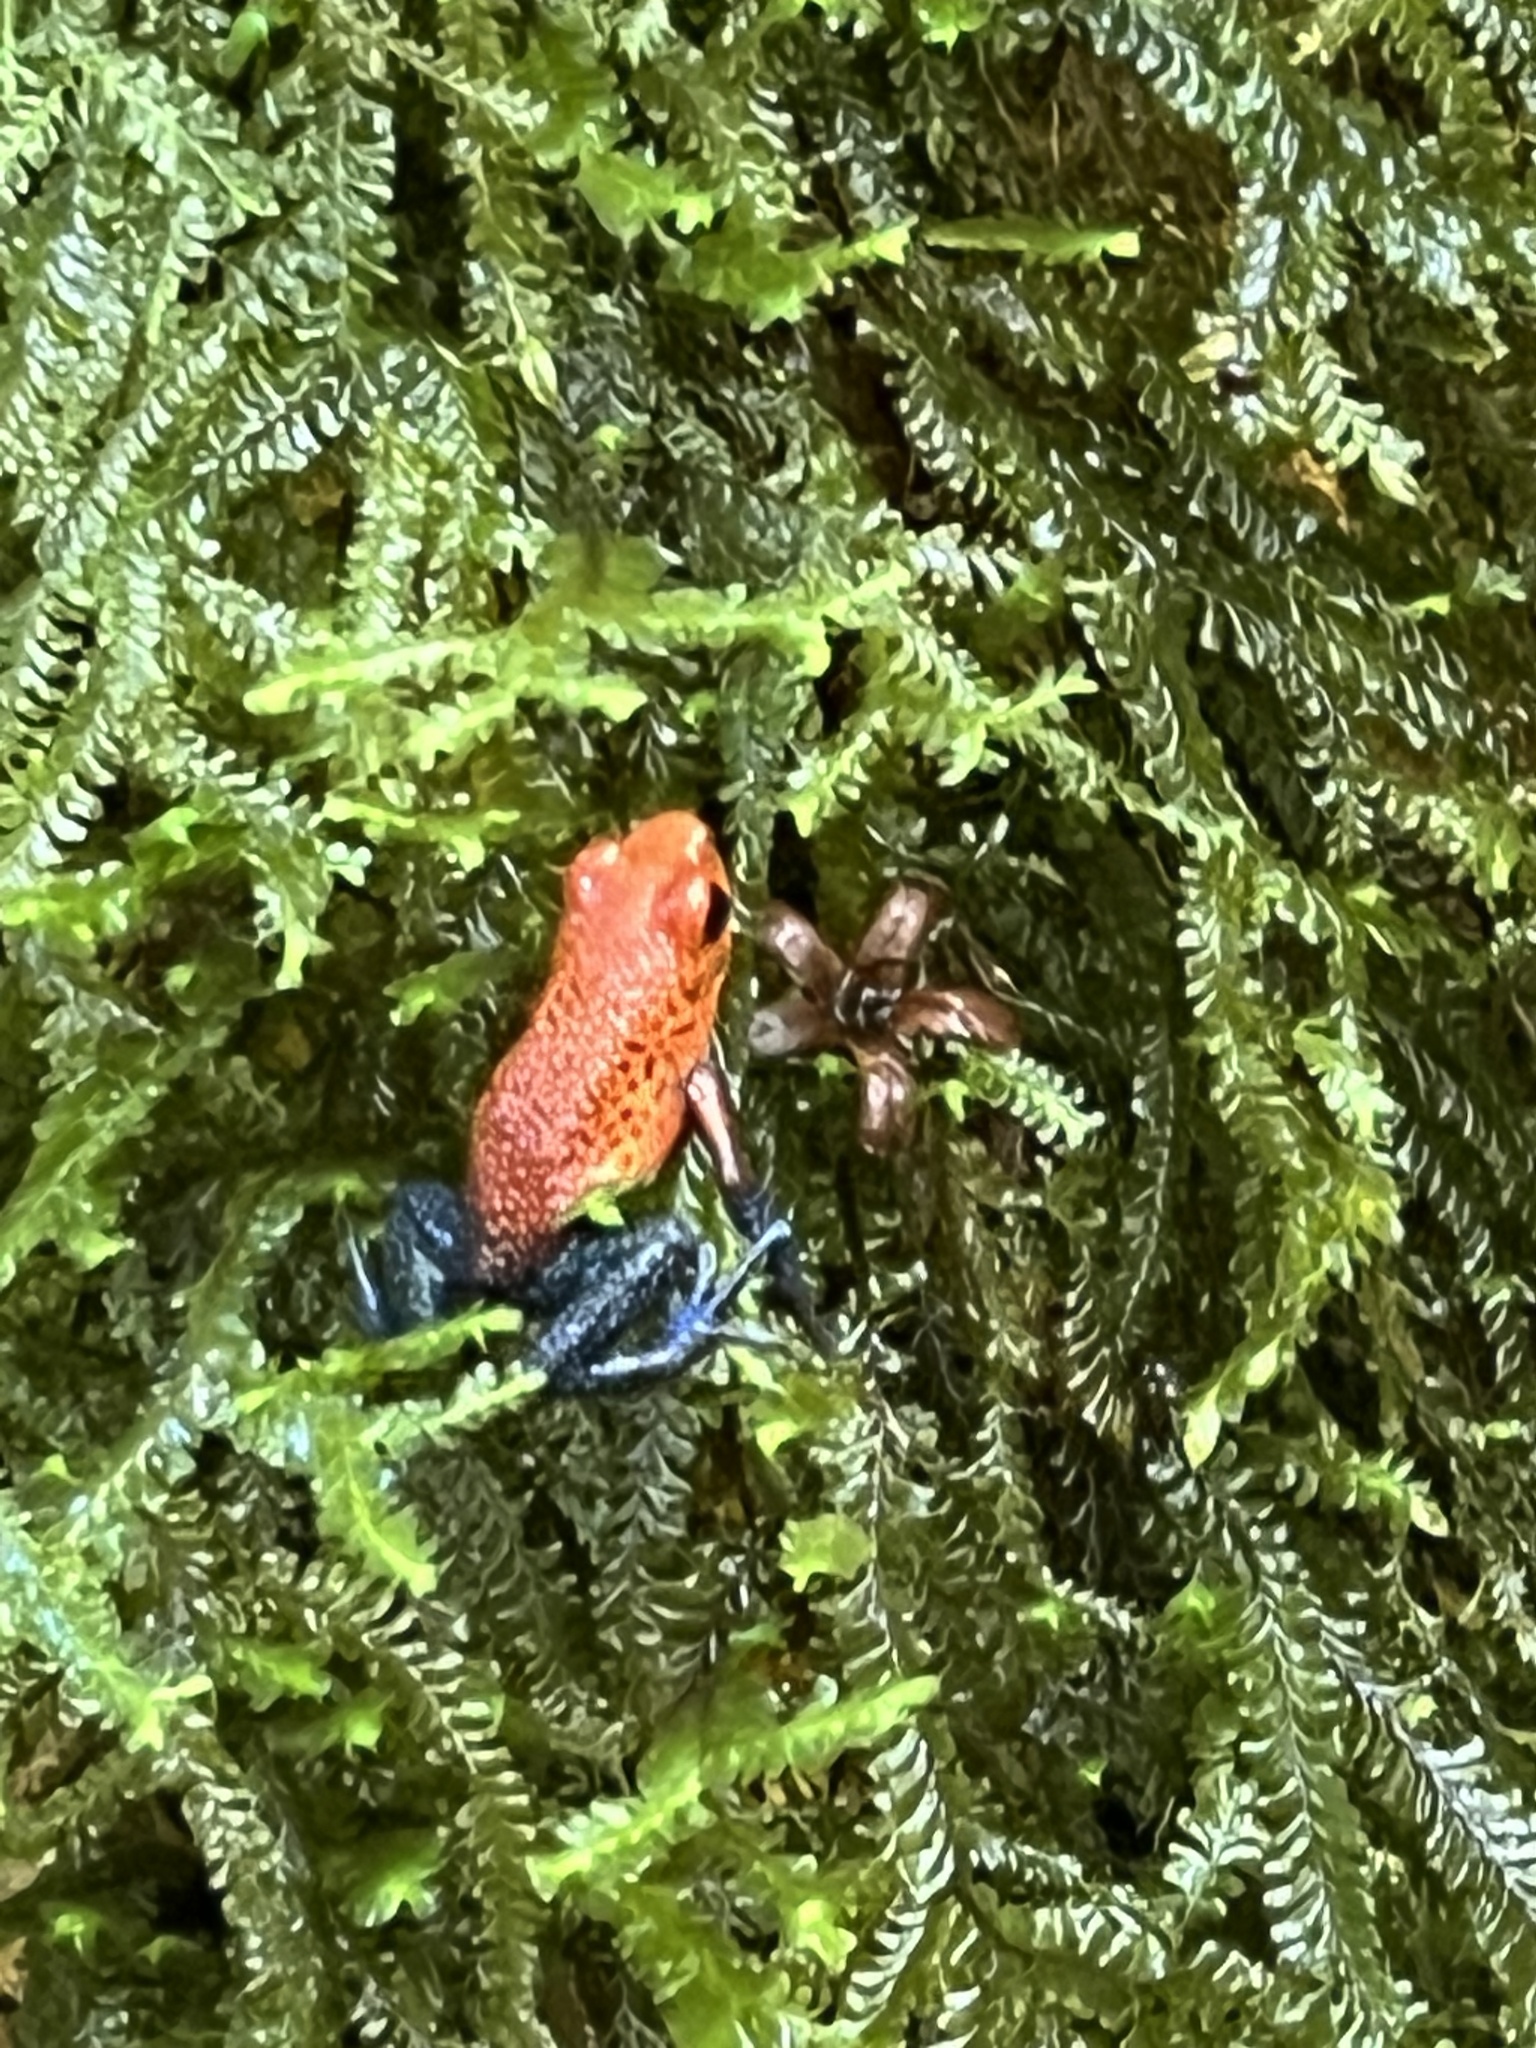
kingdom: Animalia
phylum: Chordata
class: Amphibia
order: Anura
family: Dendrobatidae
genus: Oophaga
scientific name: Oophaga pumilio
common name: Flaming poison frog
